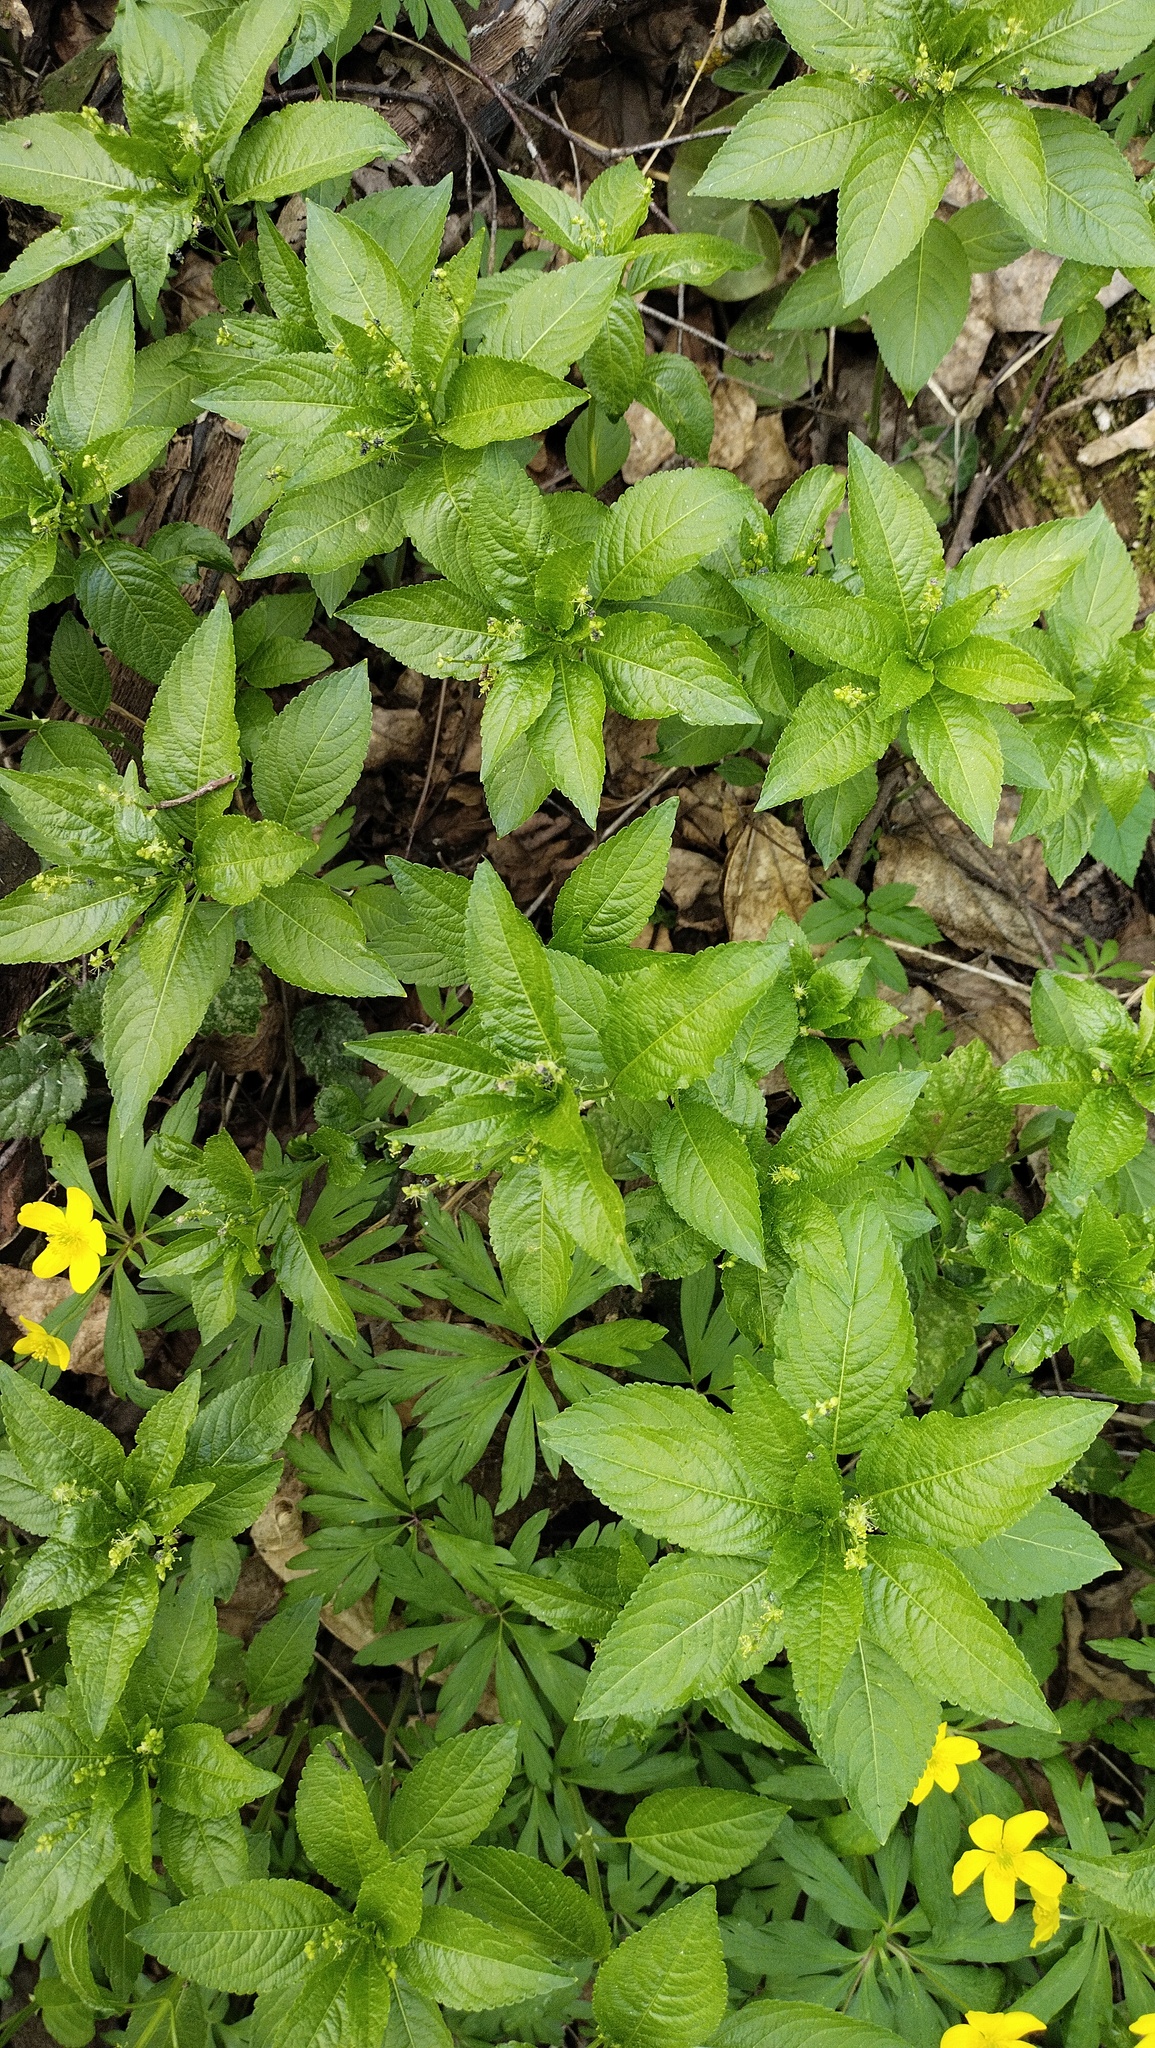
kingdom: Plantae
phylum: Tracheophyta
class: Magnoliopsida
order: Malpighiales
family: Euphorbiaceae
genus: Mercurialis
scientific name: Mercurialis perennis
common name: Dog mercury
